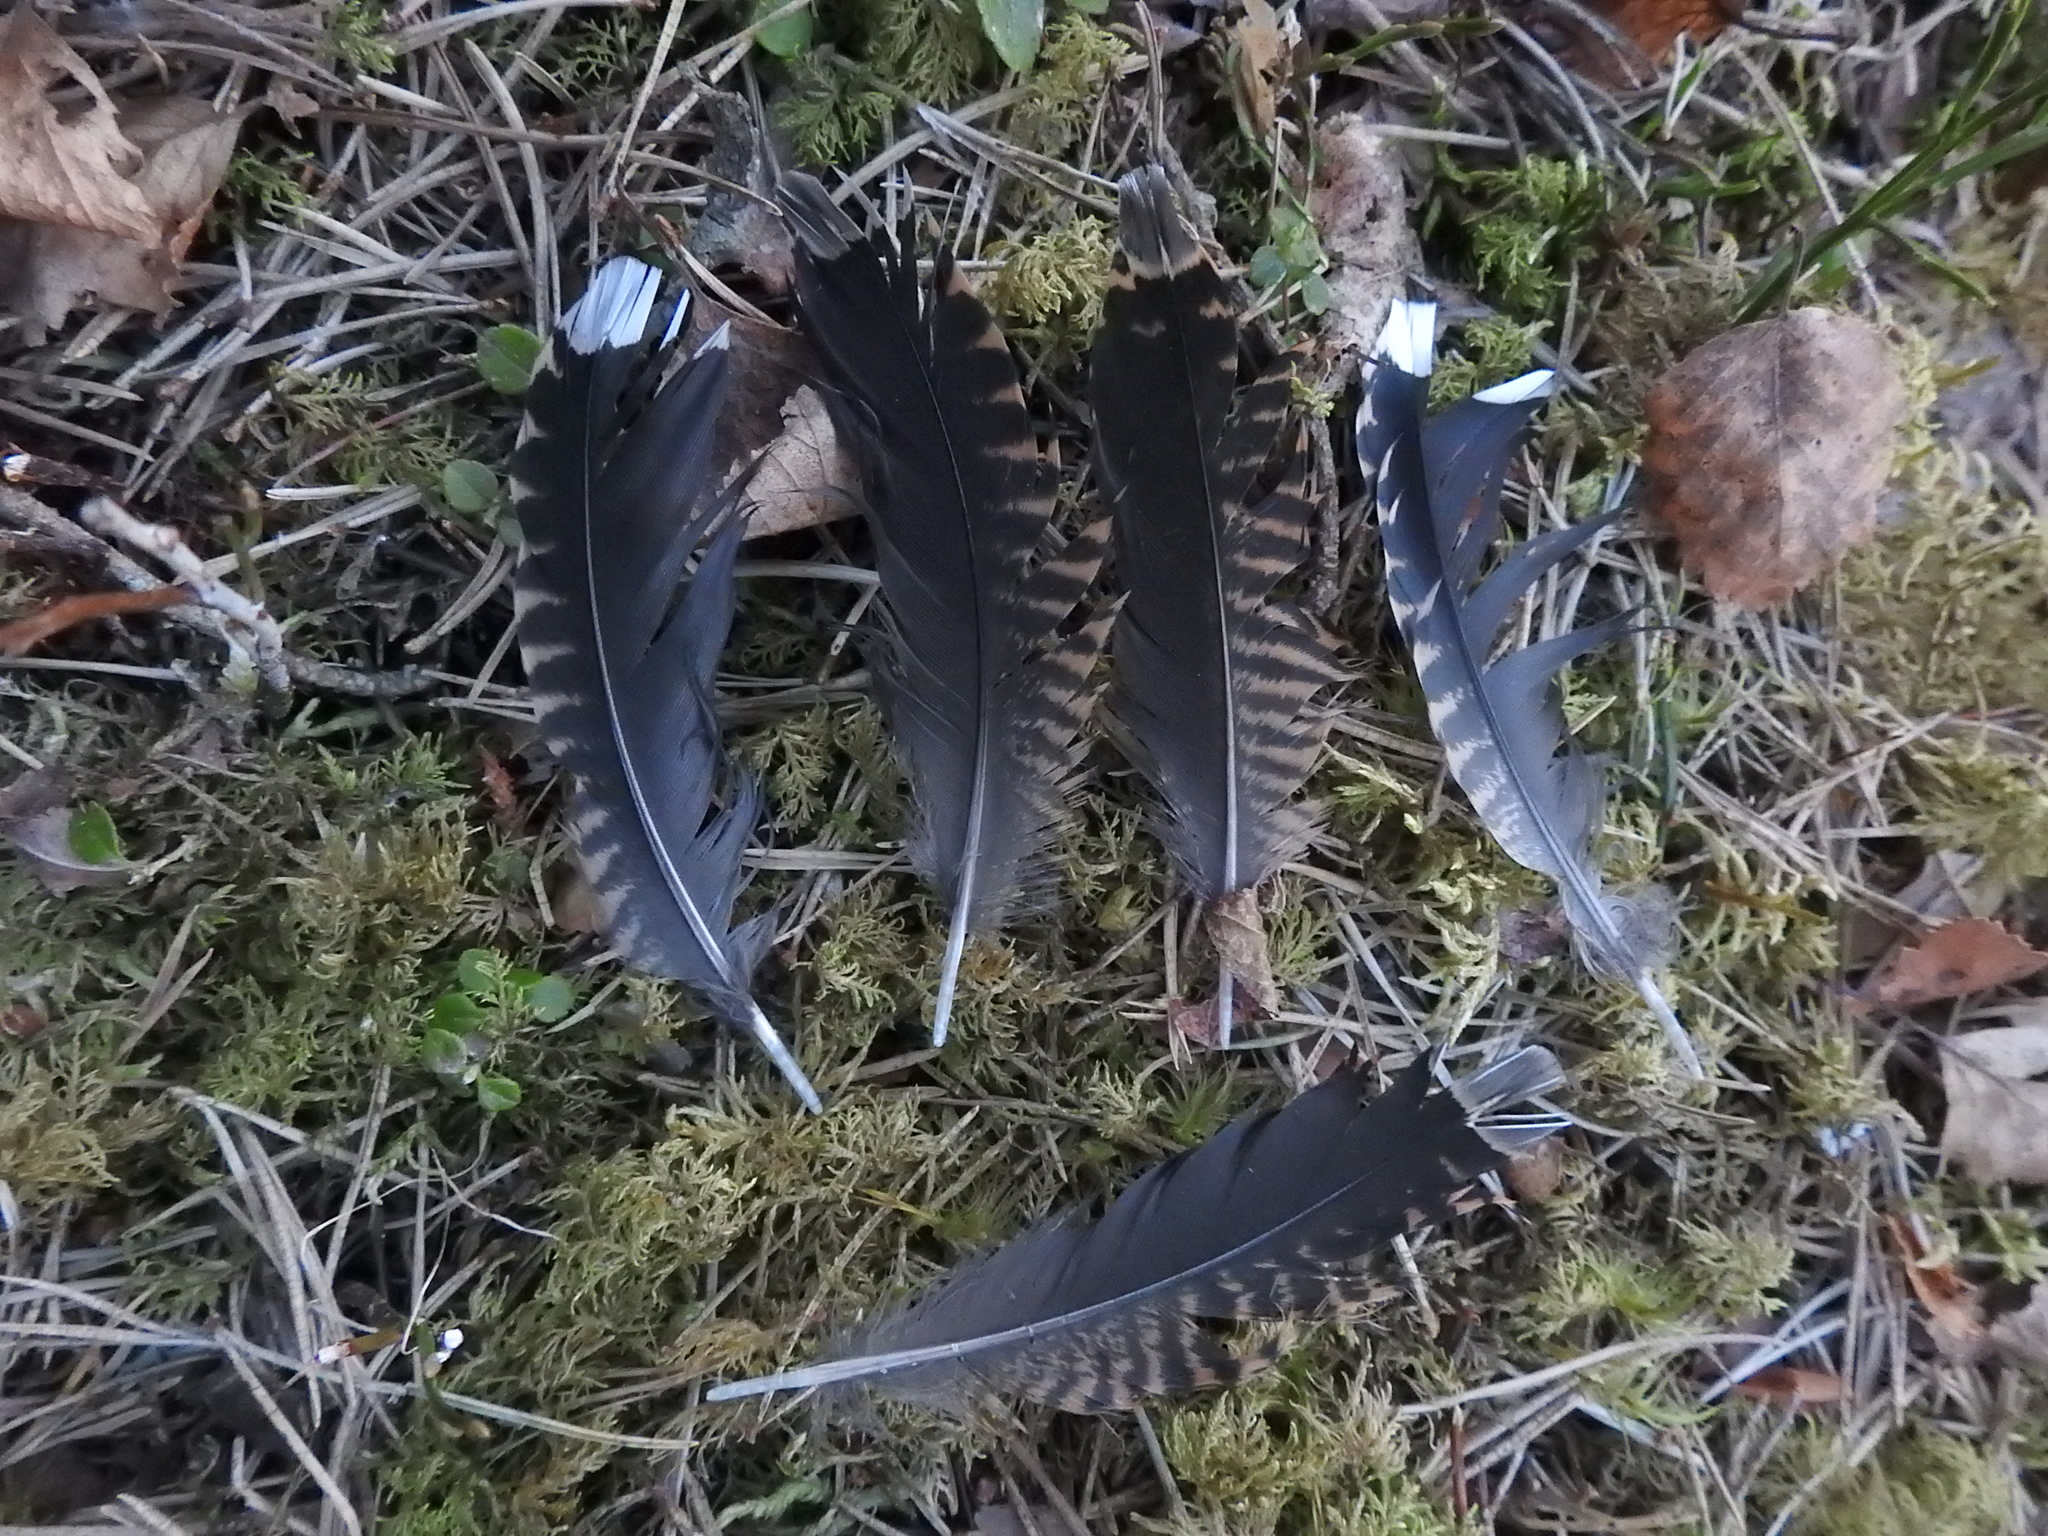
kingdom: Animalia
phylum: Chordata
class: Aves
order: Charadriiformes
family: Scolopacidae
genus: Scolopax
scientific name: Scolopax rusticola
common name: Eurasian woodcock
